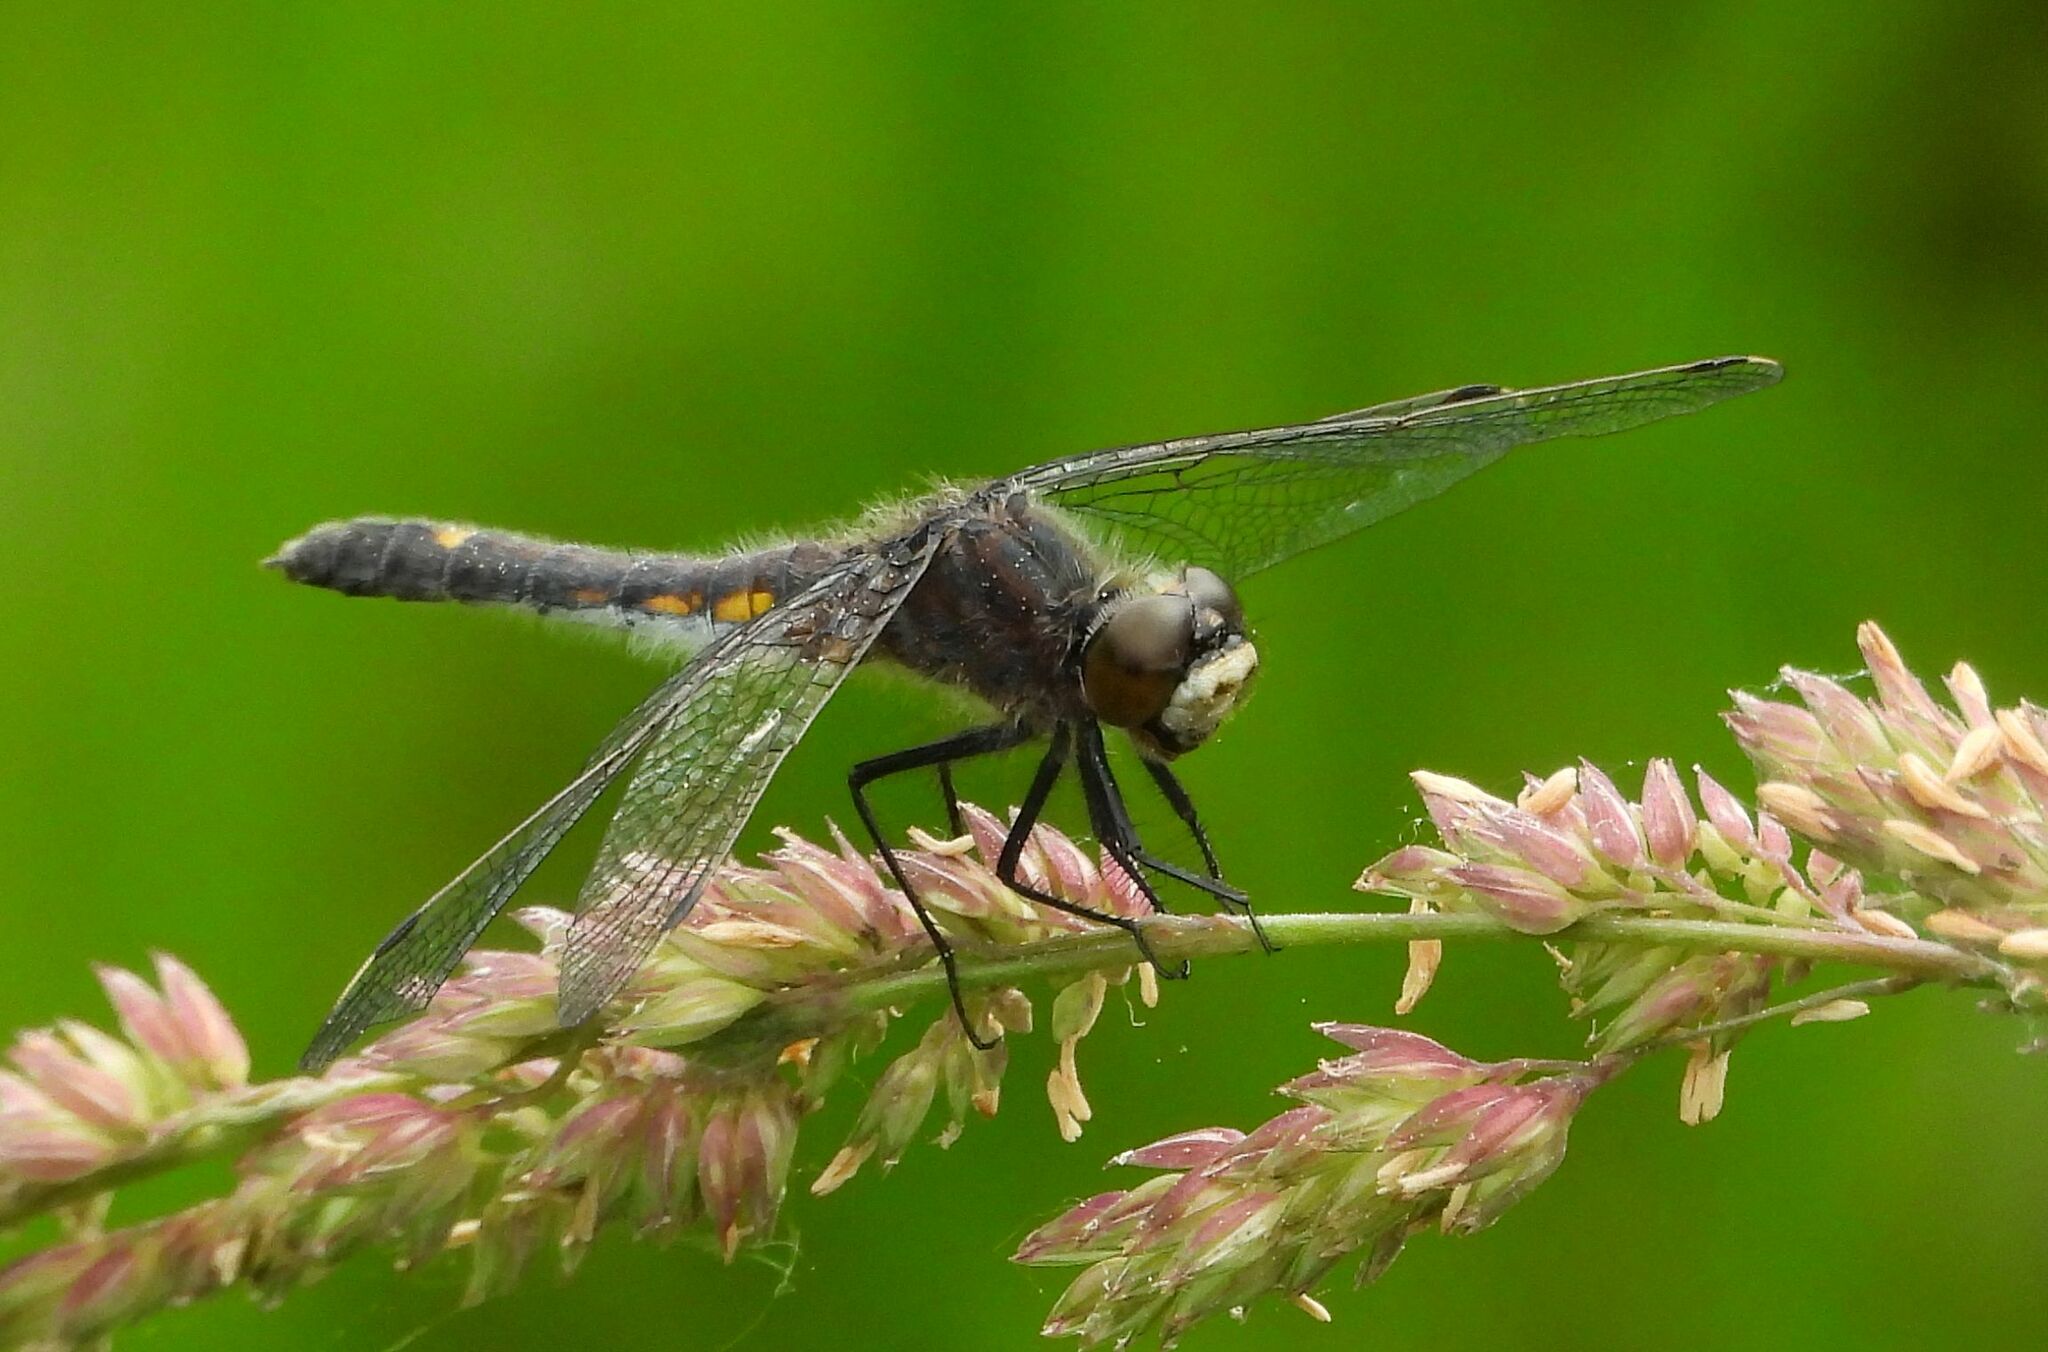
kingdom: Animalia
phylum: Arthropoda
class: Insecta
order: Odonata
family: Libellulidae
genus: Leucorrhinia
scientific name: Leucorrhinia intacta
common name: Dot-tailed whiteface
